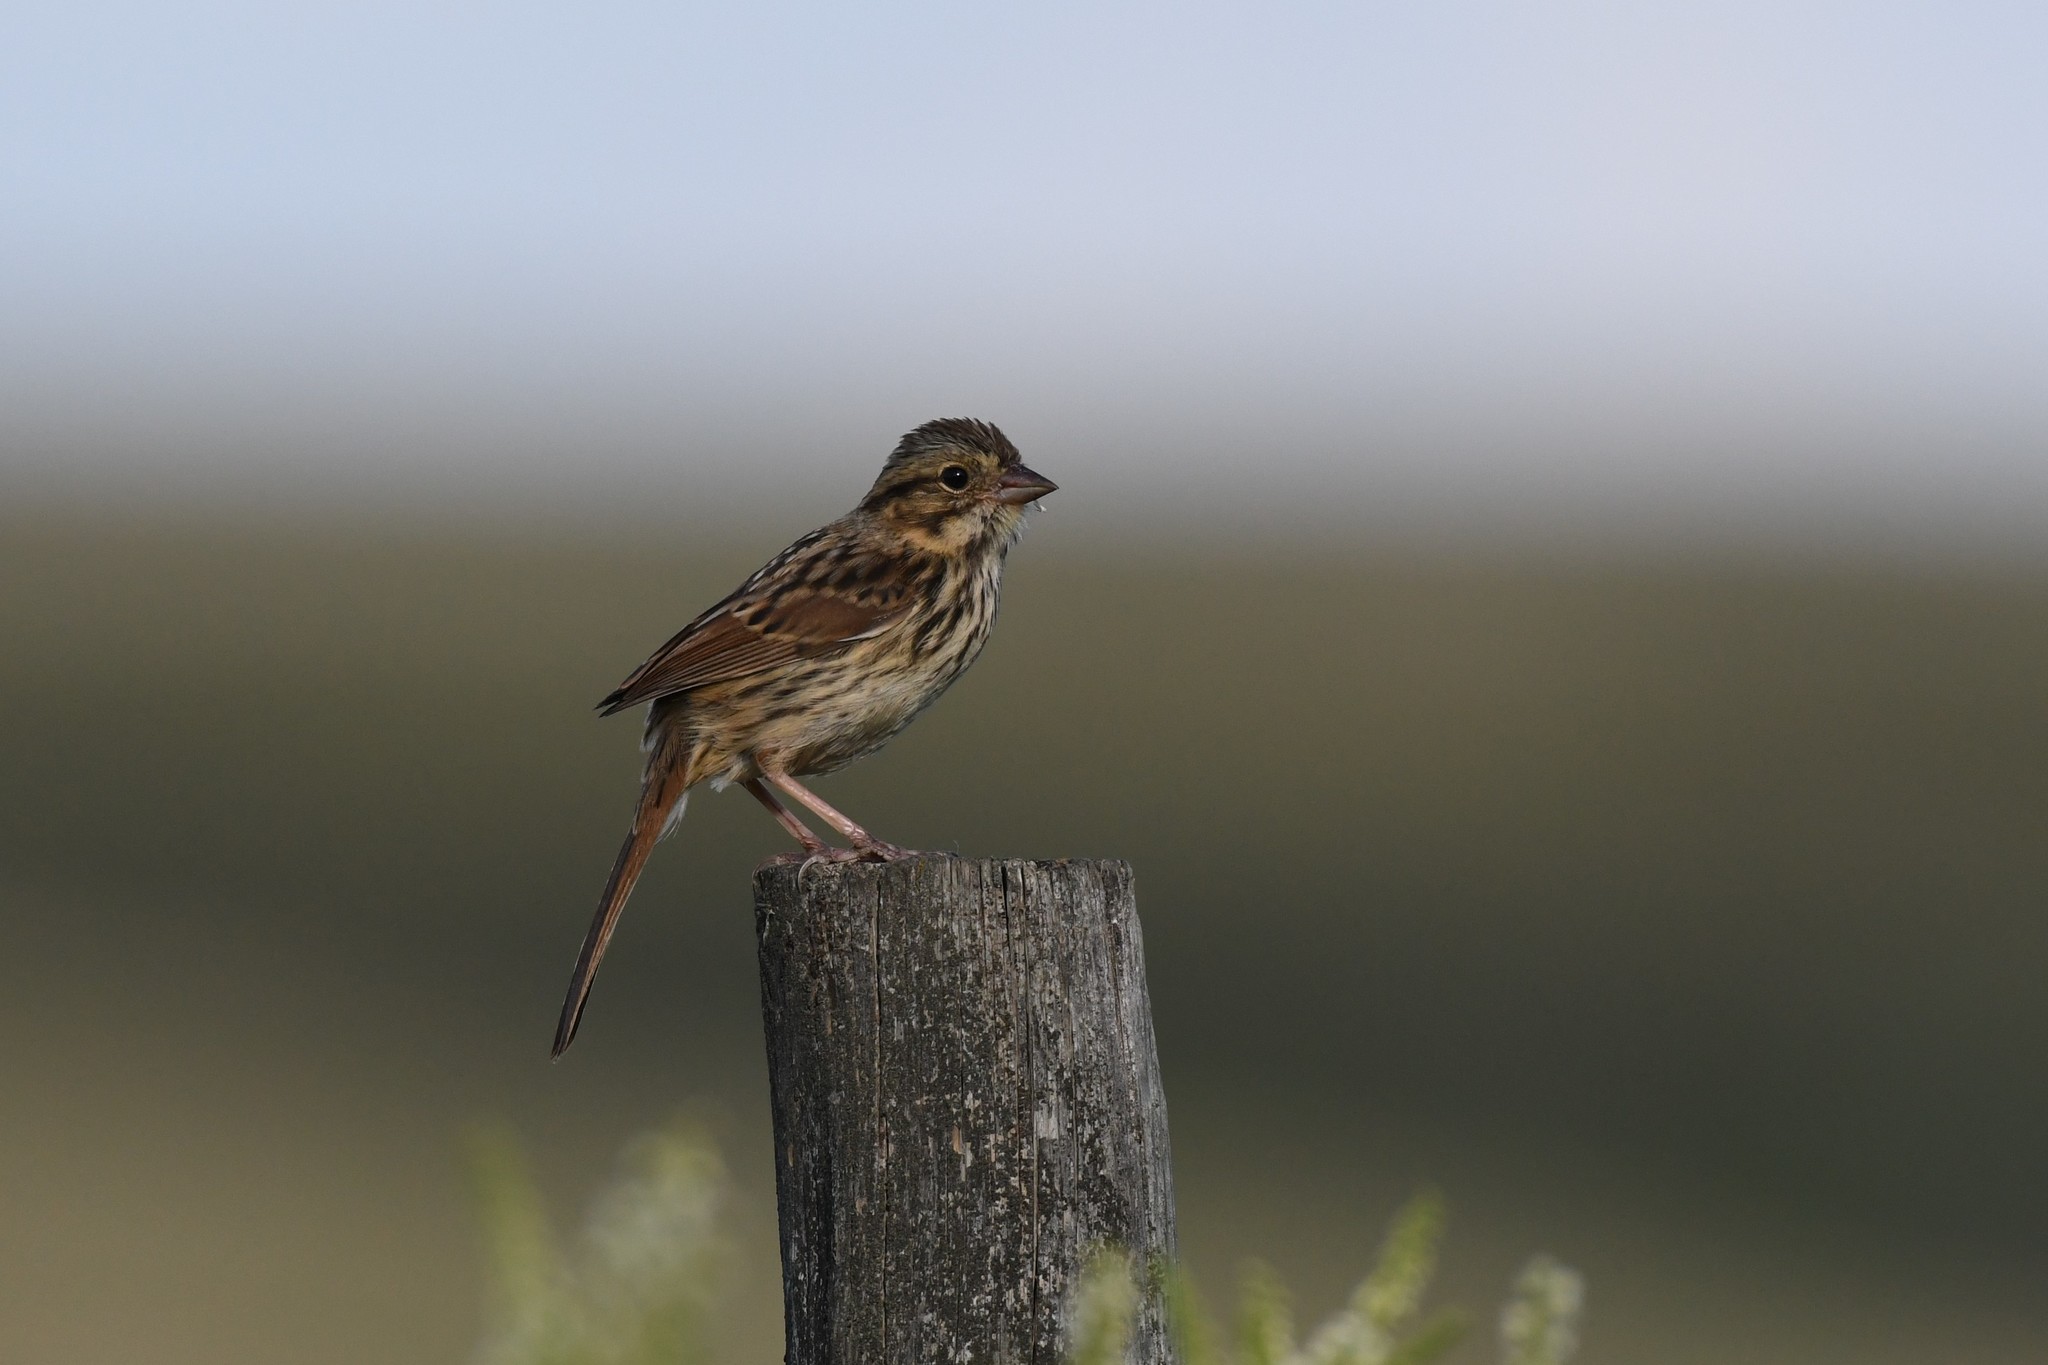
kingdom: Animalia
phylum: Chordata
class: Aves
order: Passeriformes
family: Passerellidae
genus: Melospiza
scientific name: Melospiza melodia
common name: Song sparrow
